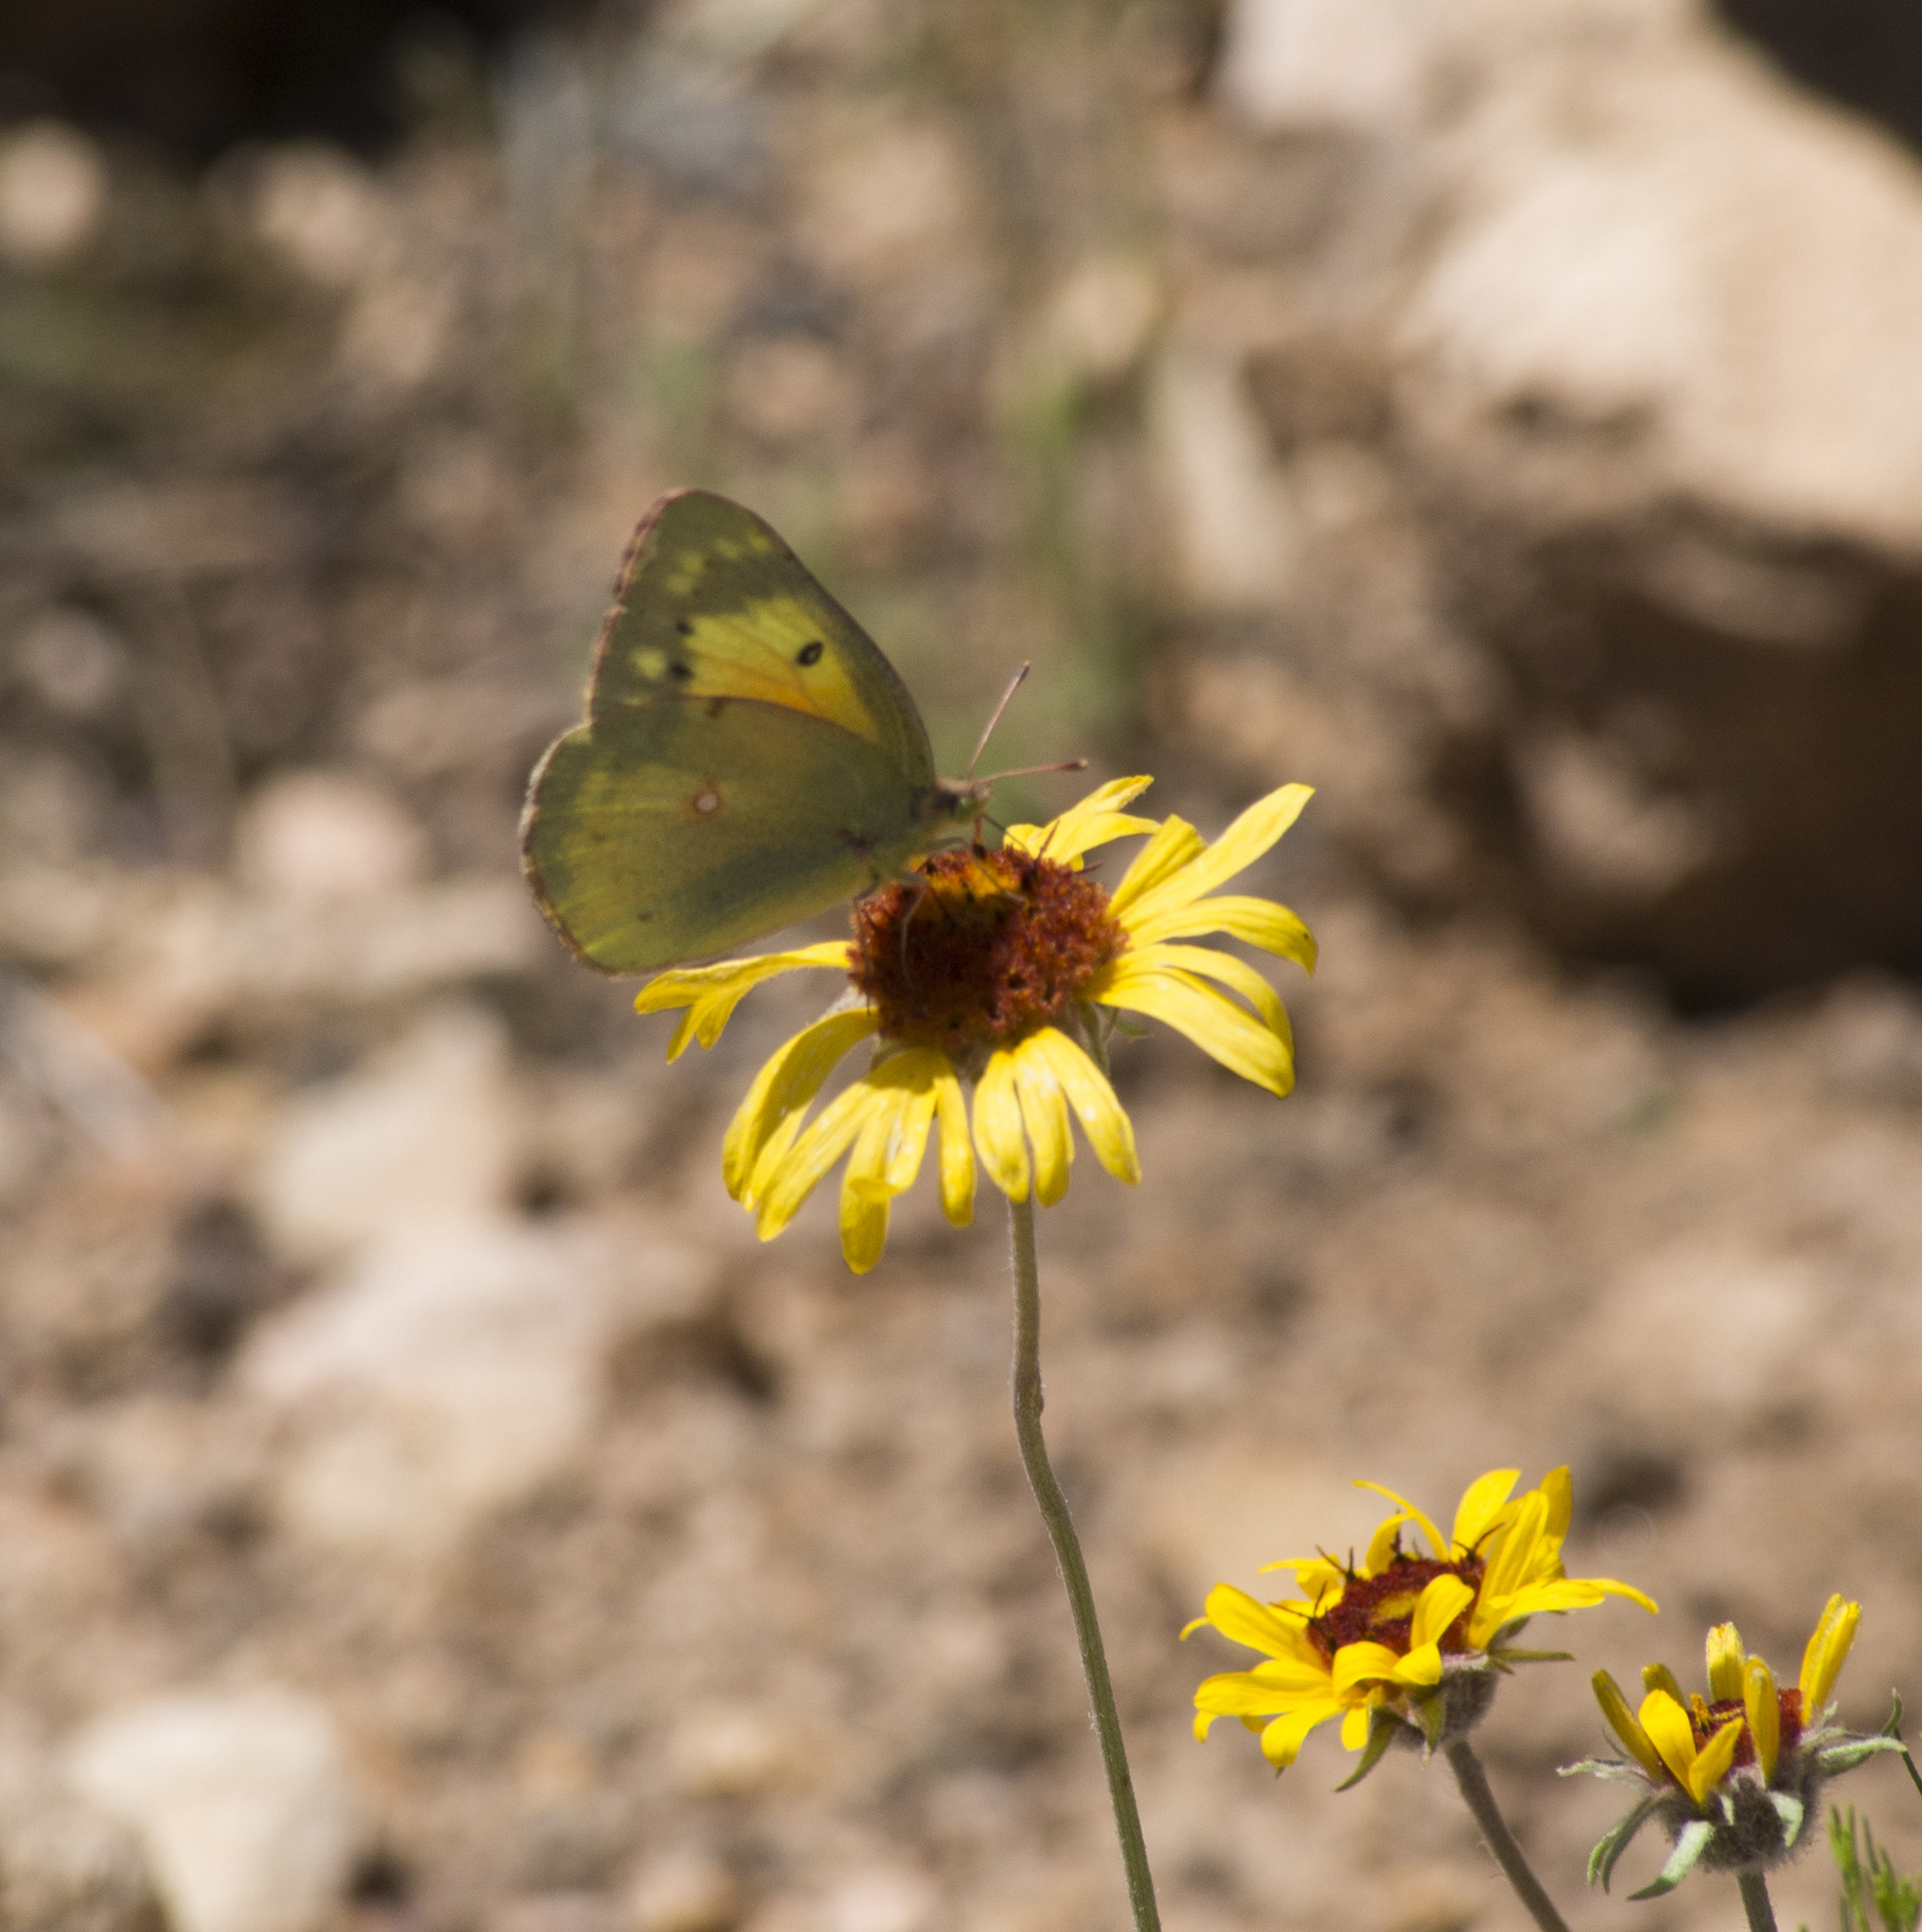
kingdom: Animalia
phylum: Arthropoda
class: Insecta
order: Lepidoptera
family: Pieridae
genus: Colias
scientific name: Colias eurytheme
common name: Alfalfa butterfly
